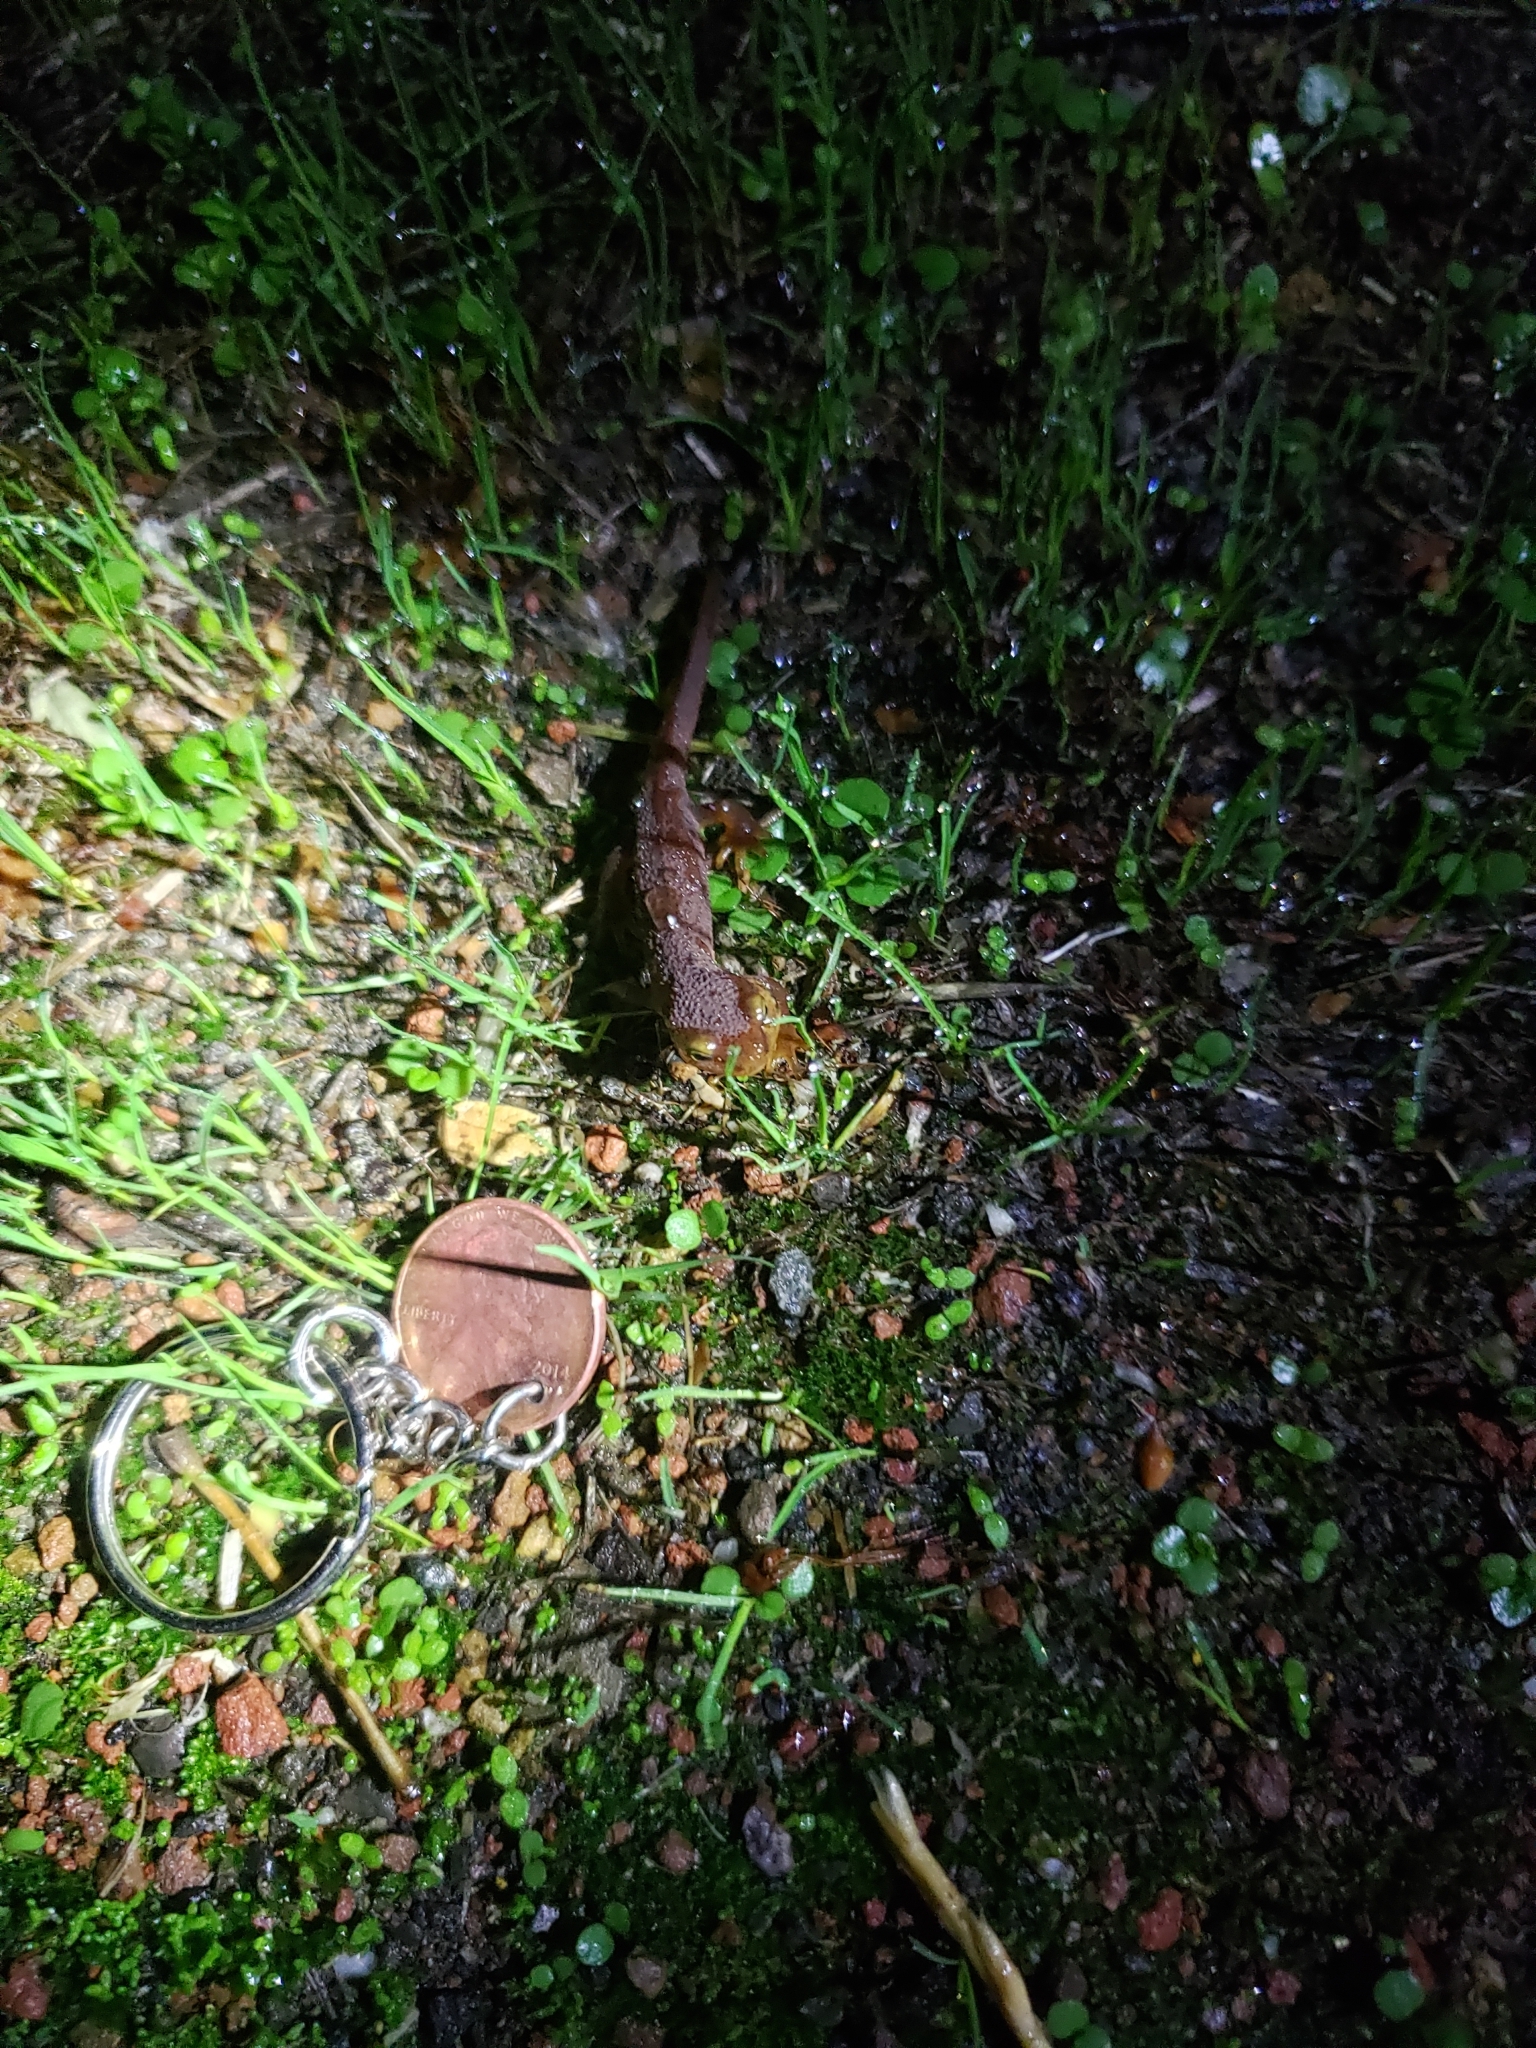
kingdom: Animalia
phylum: Chordata
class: Amphibia
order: Caudata
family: Salamandridae
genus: Taricha
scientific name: Taricha torosa
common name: California newt
